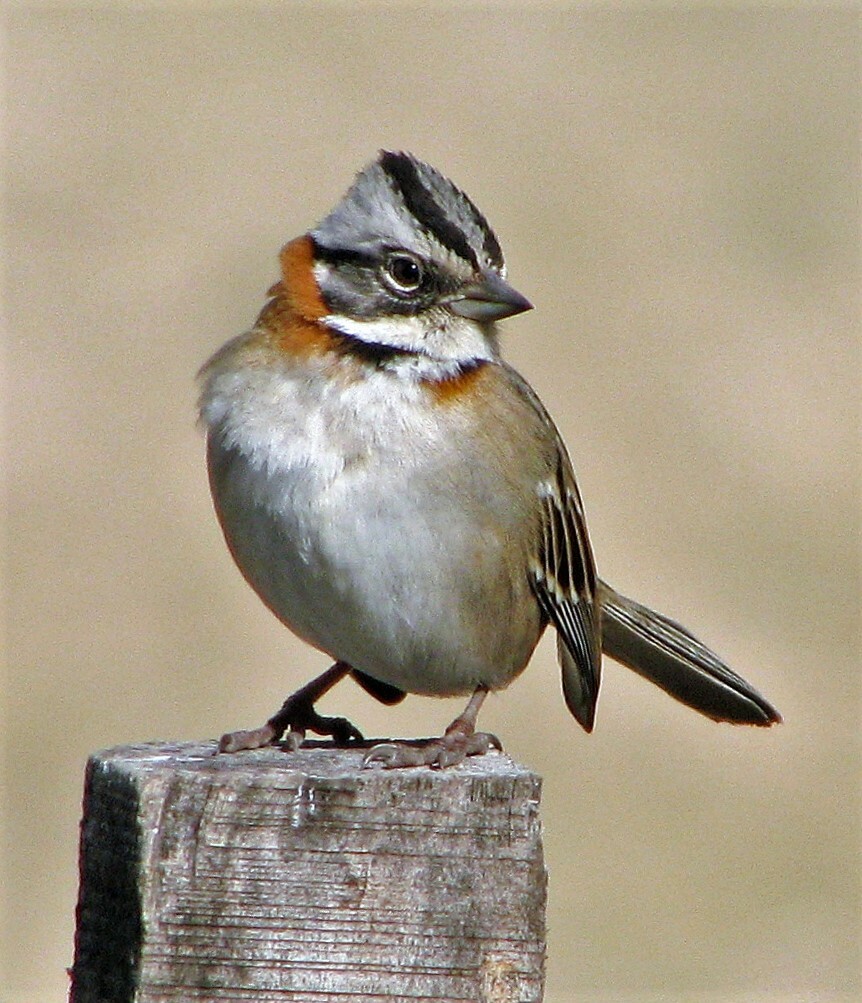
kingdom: Animalia
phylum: Chordata
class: Aves
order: Passeriformes
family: Passerellidae
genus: Zonotrichia
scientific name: Zonotrichia capensis
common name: Rufous-collared sparrow
